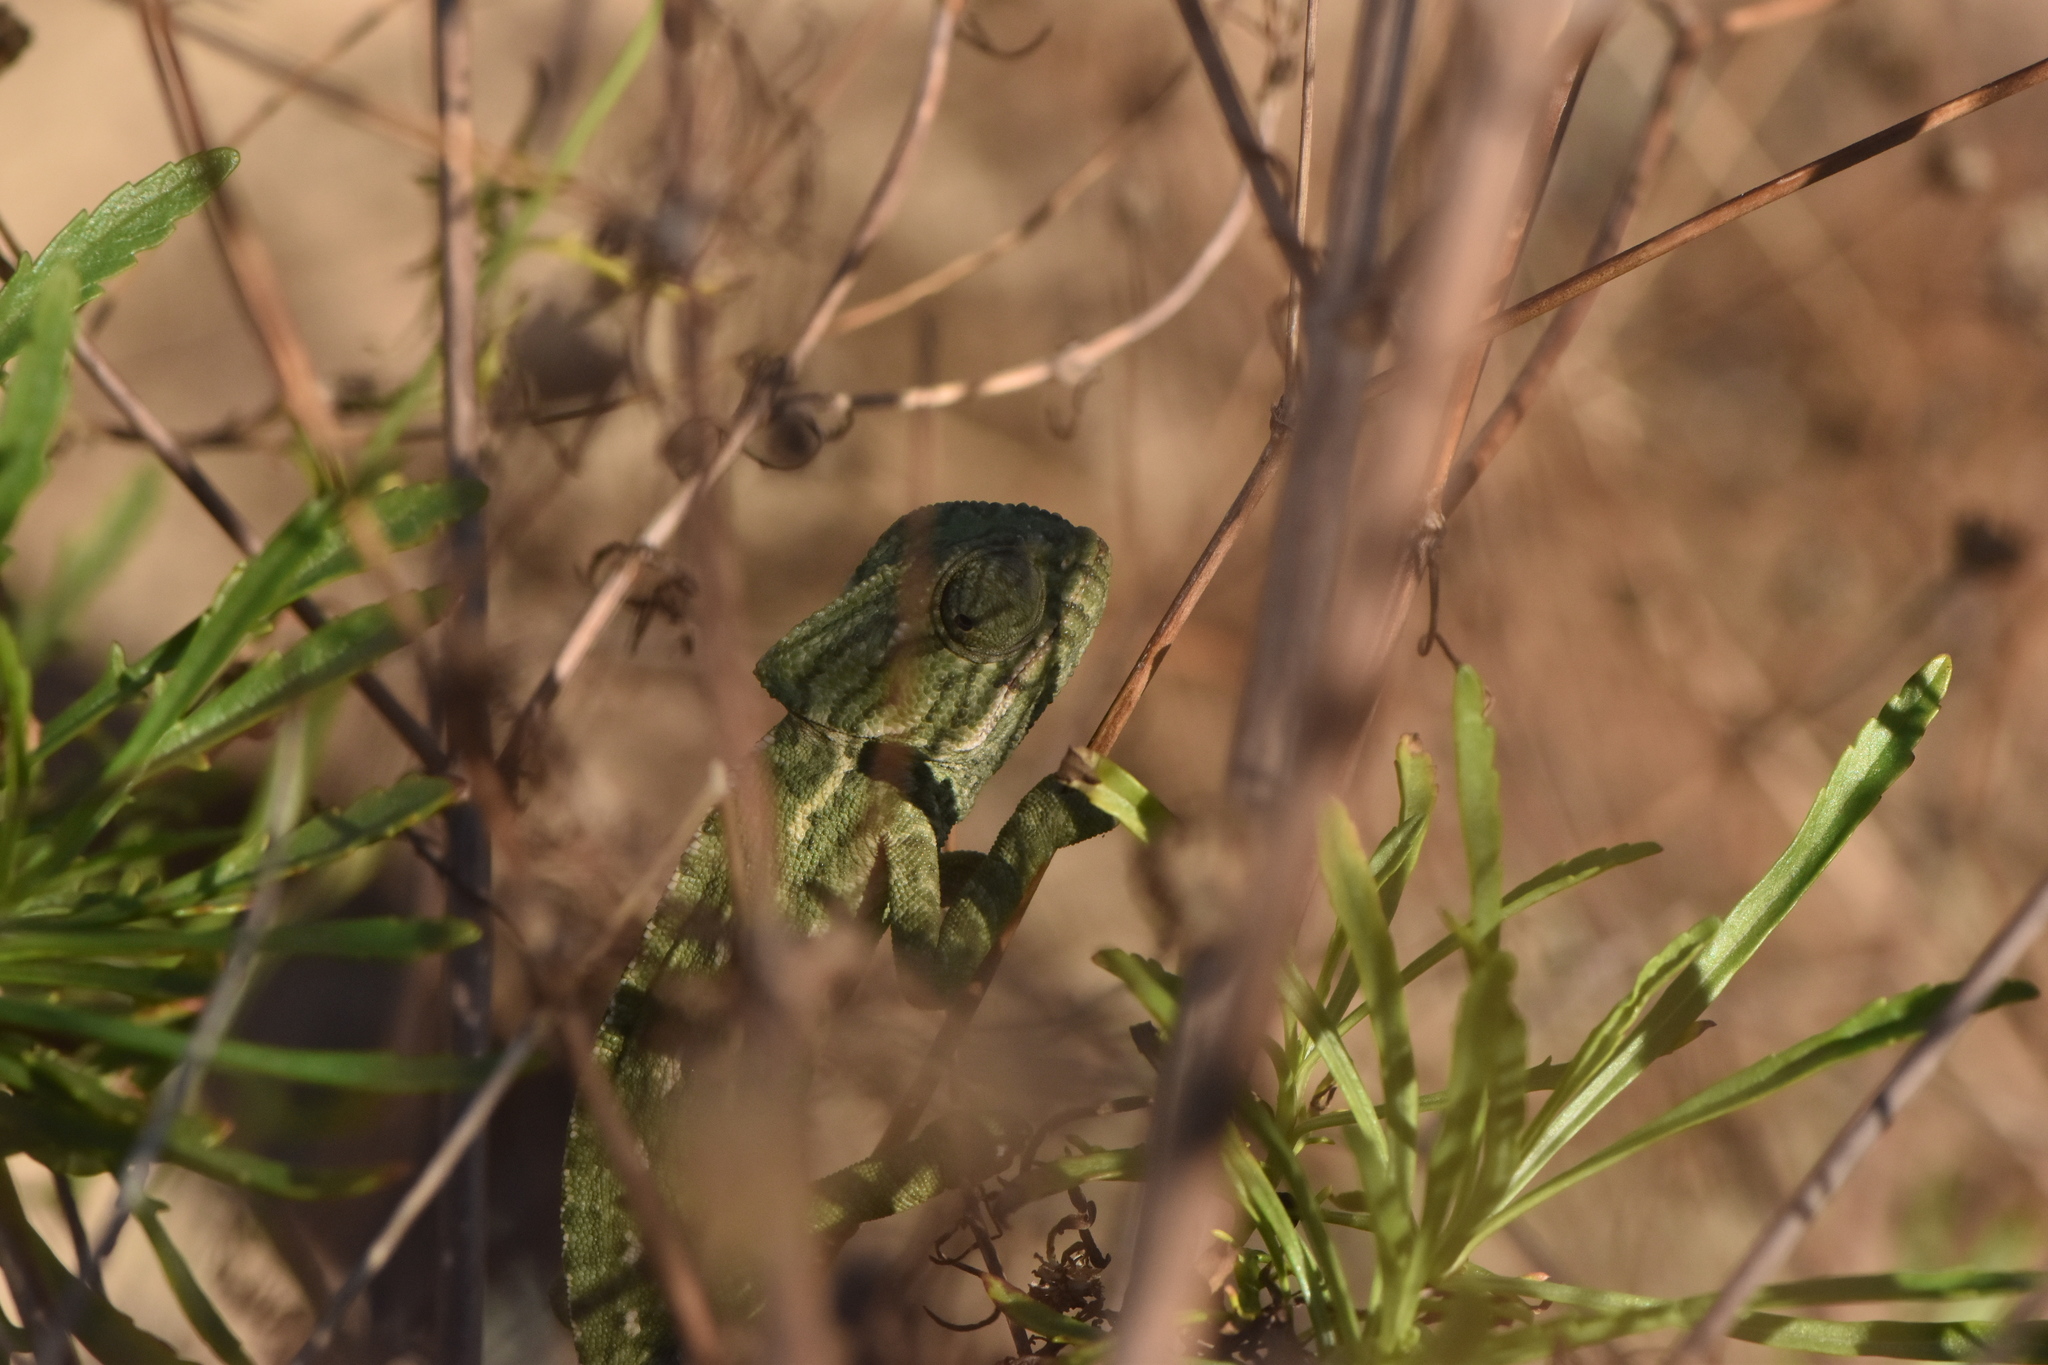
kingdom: Animalia
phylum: Chordata
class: Squamata
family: Chamaeleonidae
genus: Chamaeleo
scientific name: Chamaeleo chamaeleon
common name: Mediterranean chameleon
